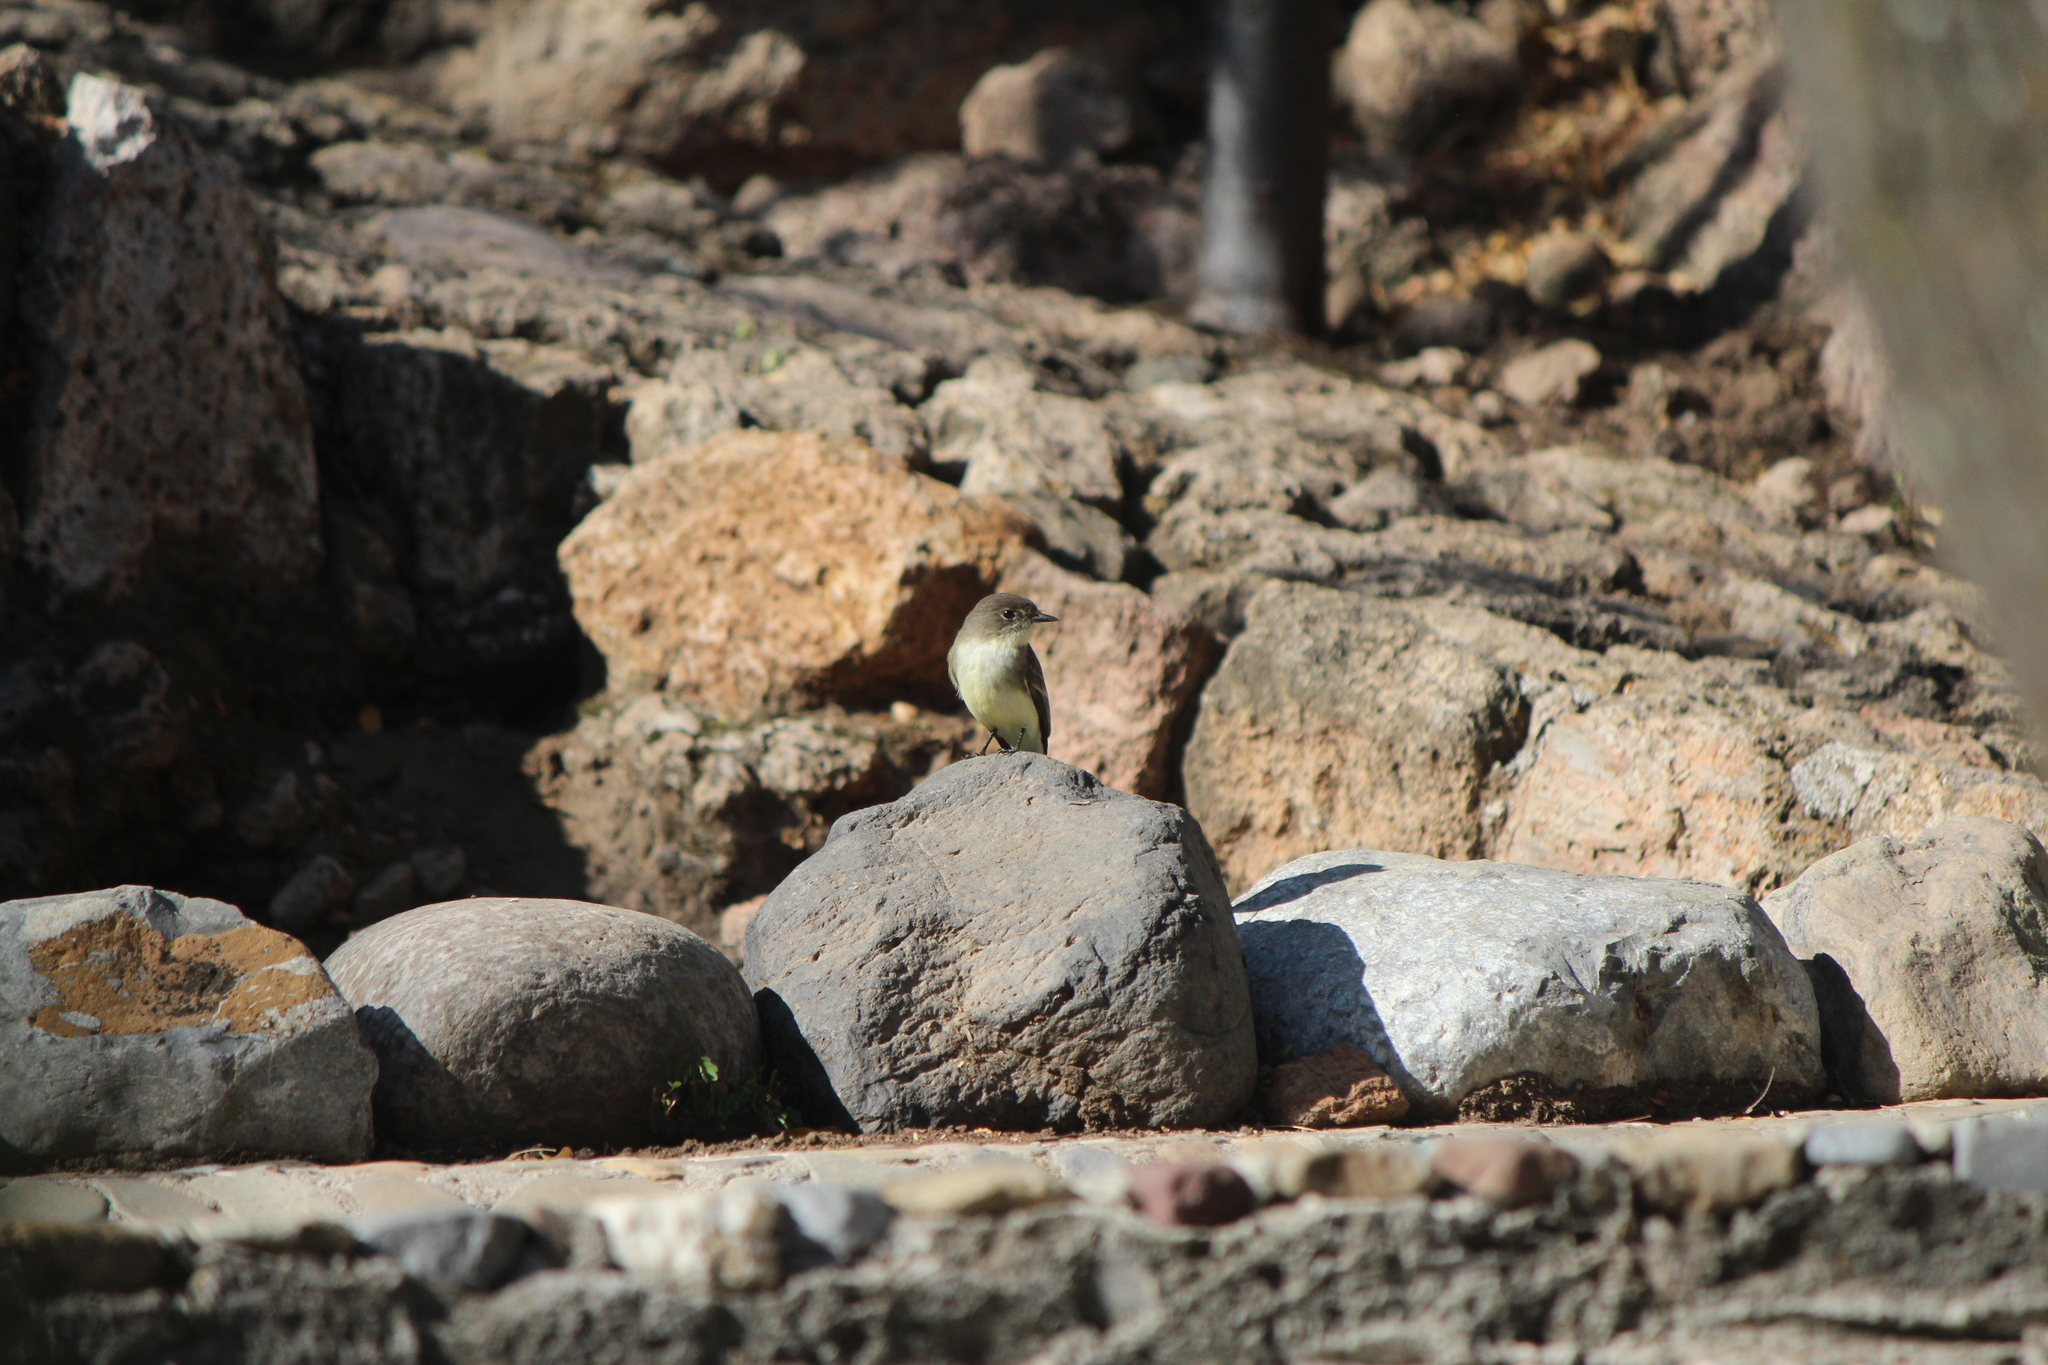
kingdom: Animalia
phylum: Chordata
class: Aves
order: Passeriformes
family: Tyrannidae
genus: Sayornis
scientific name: Sayornis phoebe
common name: Eastern phoebe
